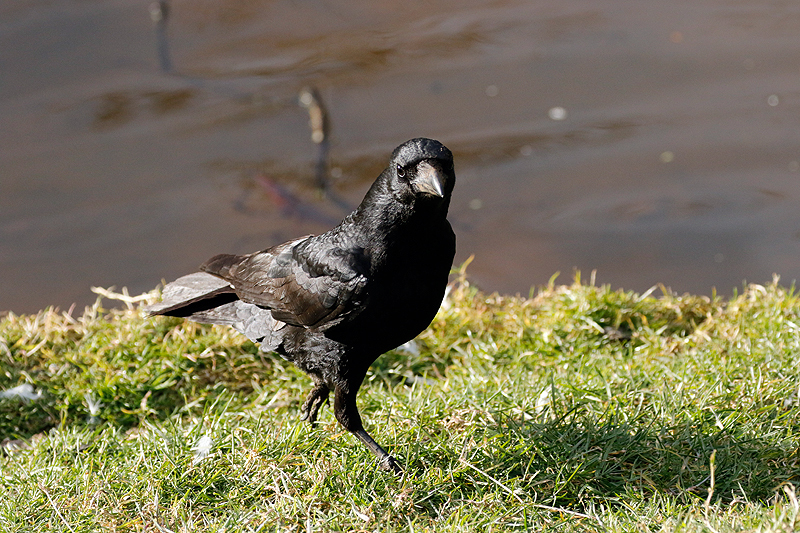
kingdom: Animalia
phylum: Chordata
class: Aves
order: Passeriformes
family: Corvidae
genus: Corvus
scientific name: Corvus corone
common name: Carrion crow
